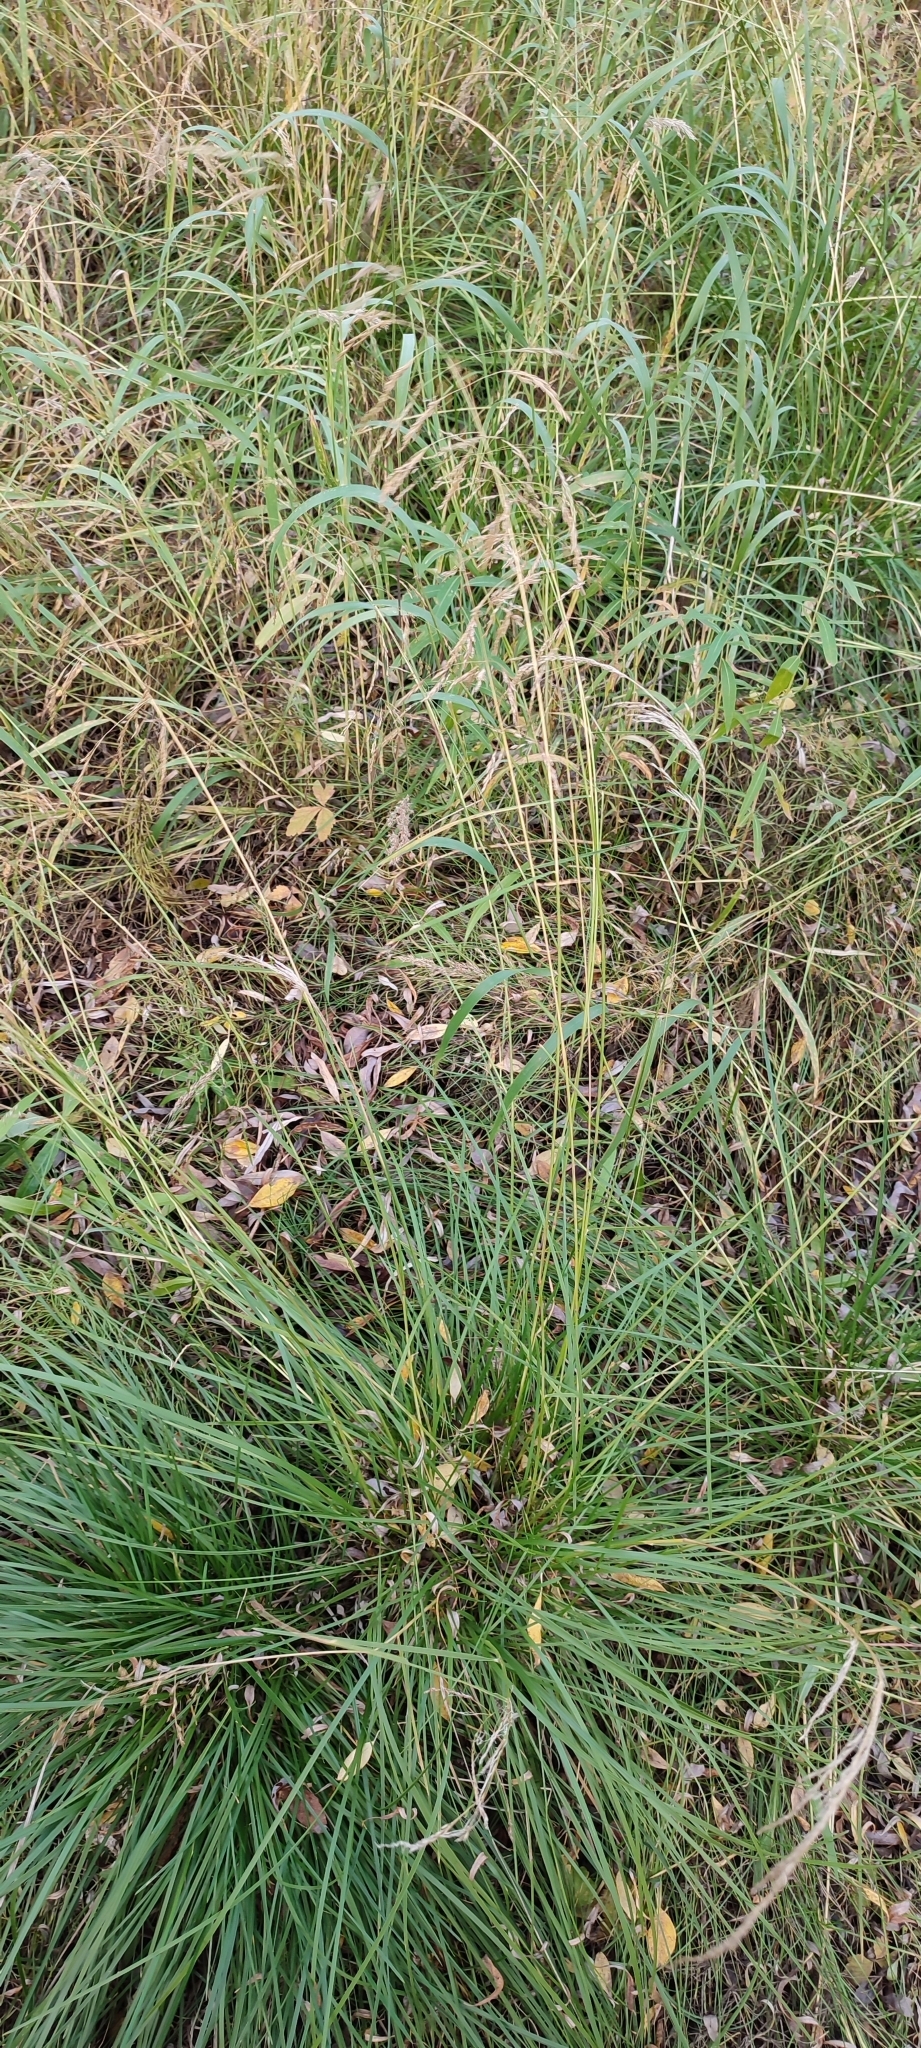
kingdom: Plantae
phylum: Tracheophyta
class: Liliopsida
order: Poales
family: Poaceae
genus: Deschampsia
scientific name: Deschampsia cespitosa
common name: Tufted hair-grass
